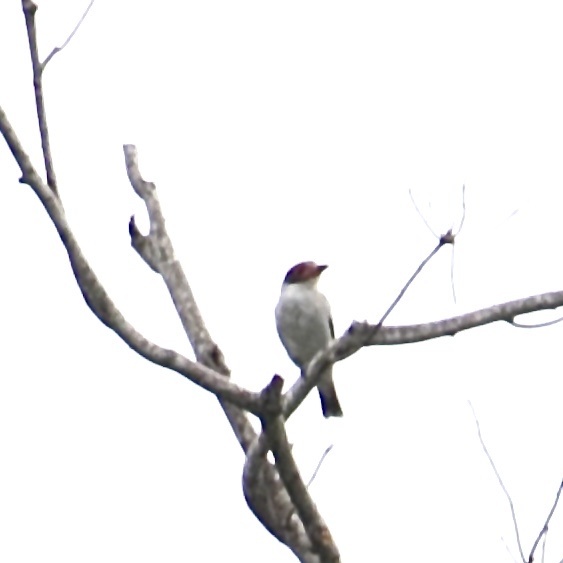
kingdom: Animalia
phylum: Chordata
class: Aves
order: Passeriformes
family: Cotingidae
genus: Tityra
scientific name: Tityra semifasciata
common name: Masked tityra
